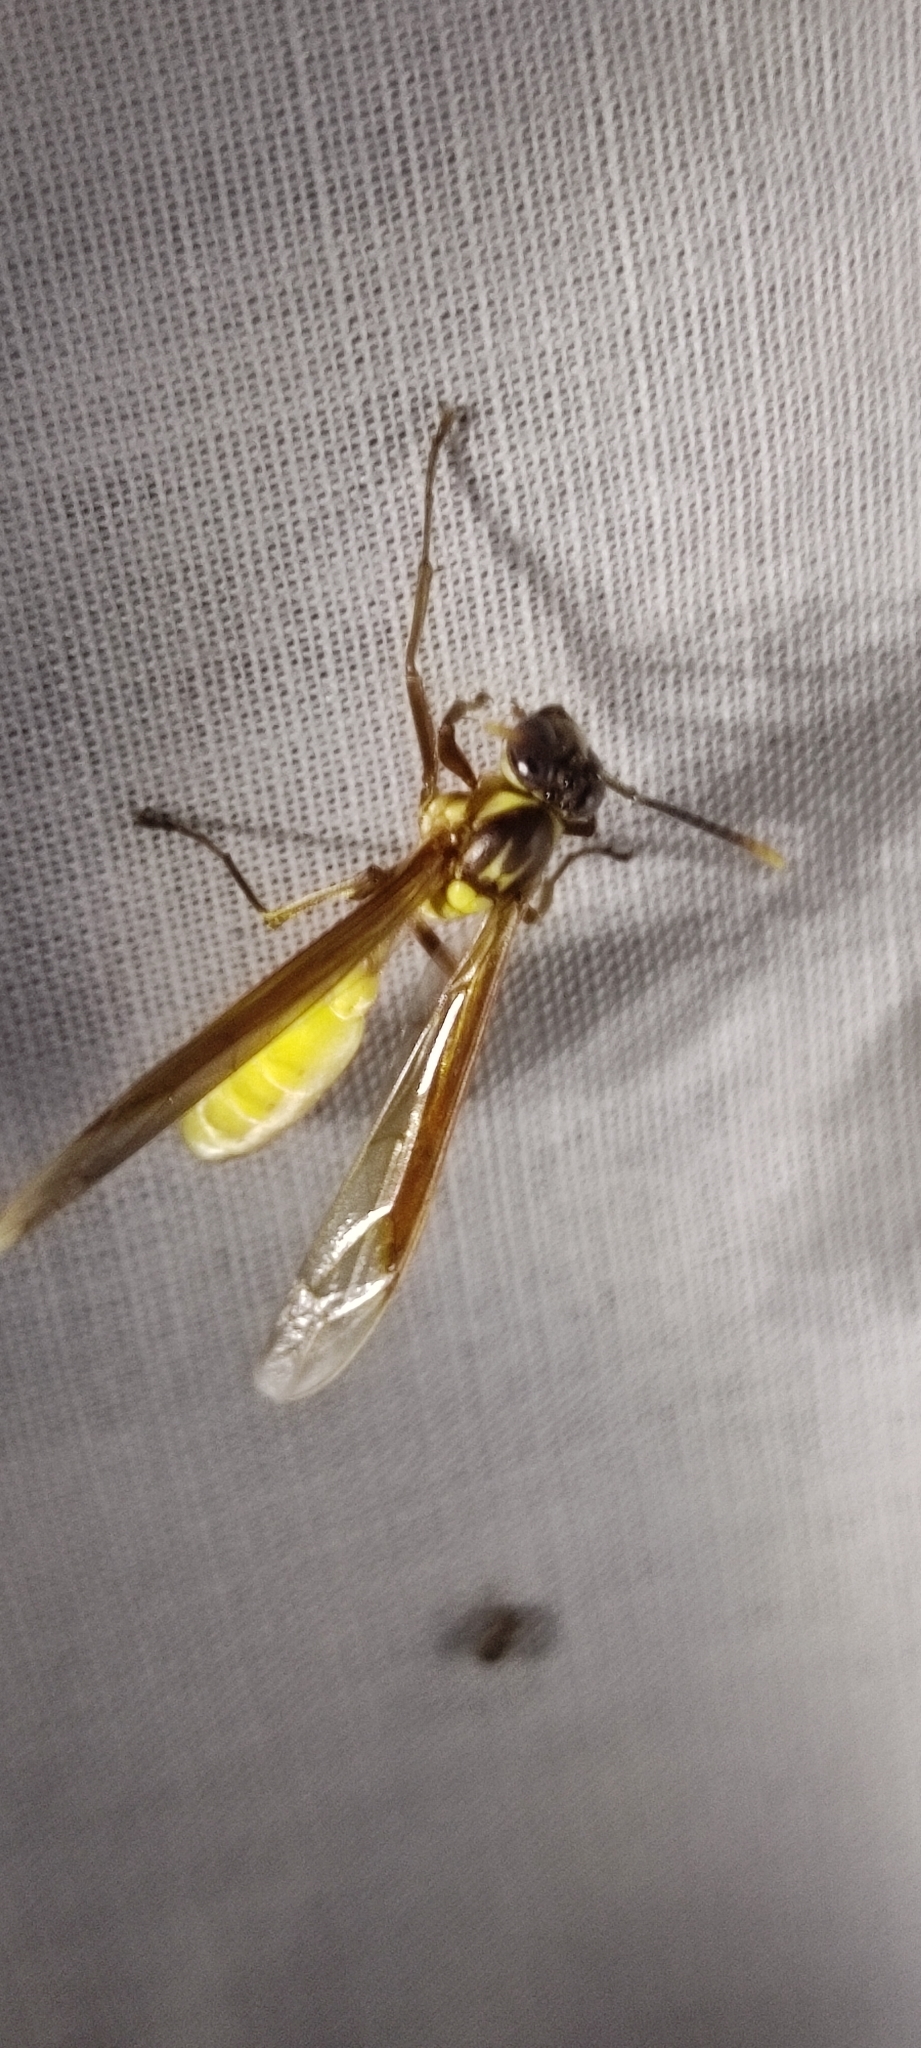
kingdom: Animalia
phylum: Arthropoda
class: Insecta
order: Hymenoptera
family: Vespidae
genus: Apoica
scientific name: Apoica pallens
